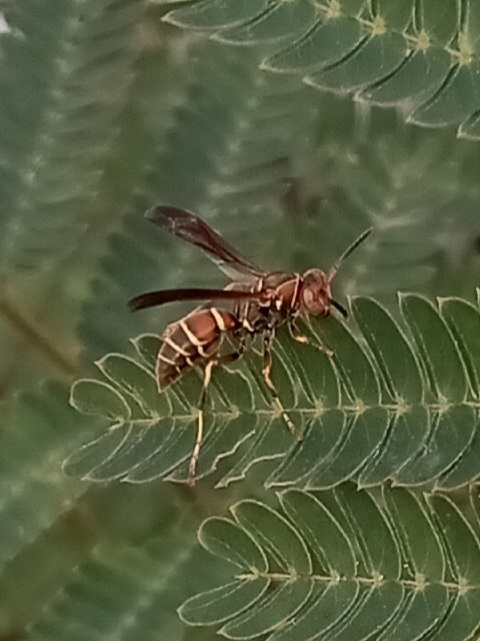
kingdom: Animalia
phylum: Arthropoda
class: Insecta
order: Hymenoptera
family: Eumenidae
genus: Polistes
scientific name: Polistes dorsalis
